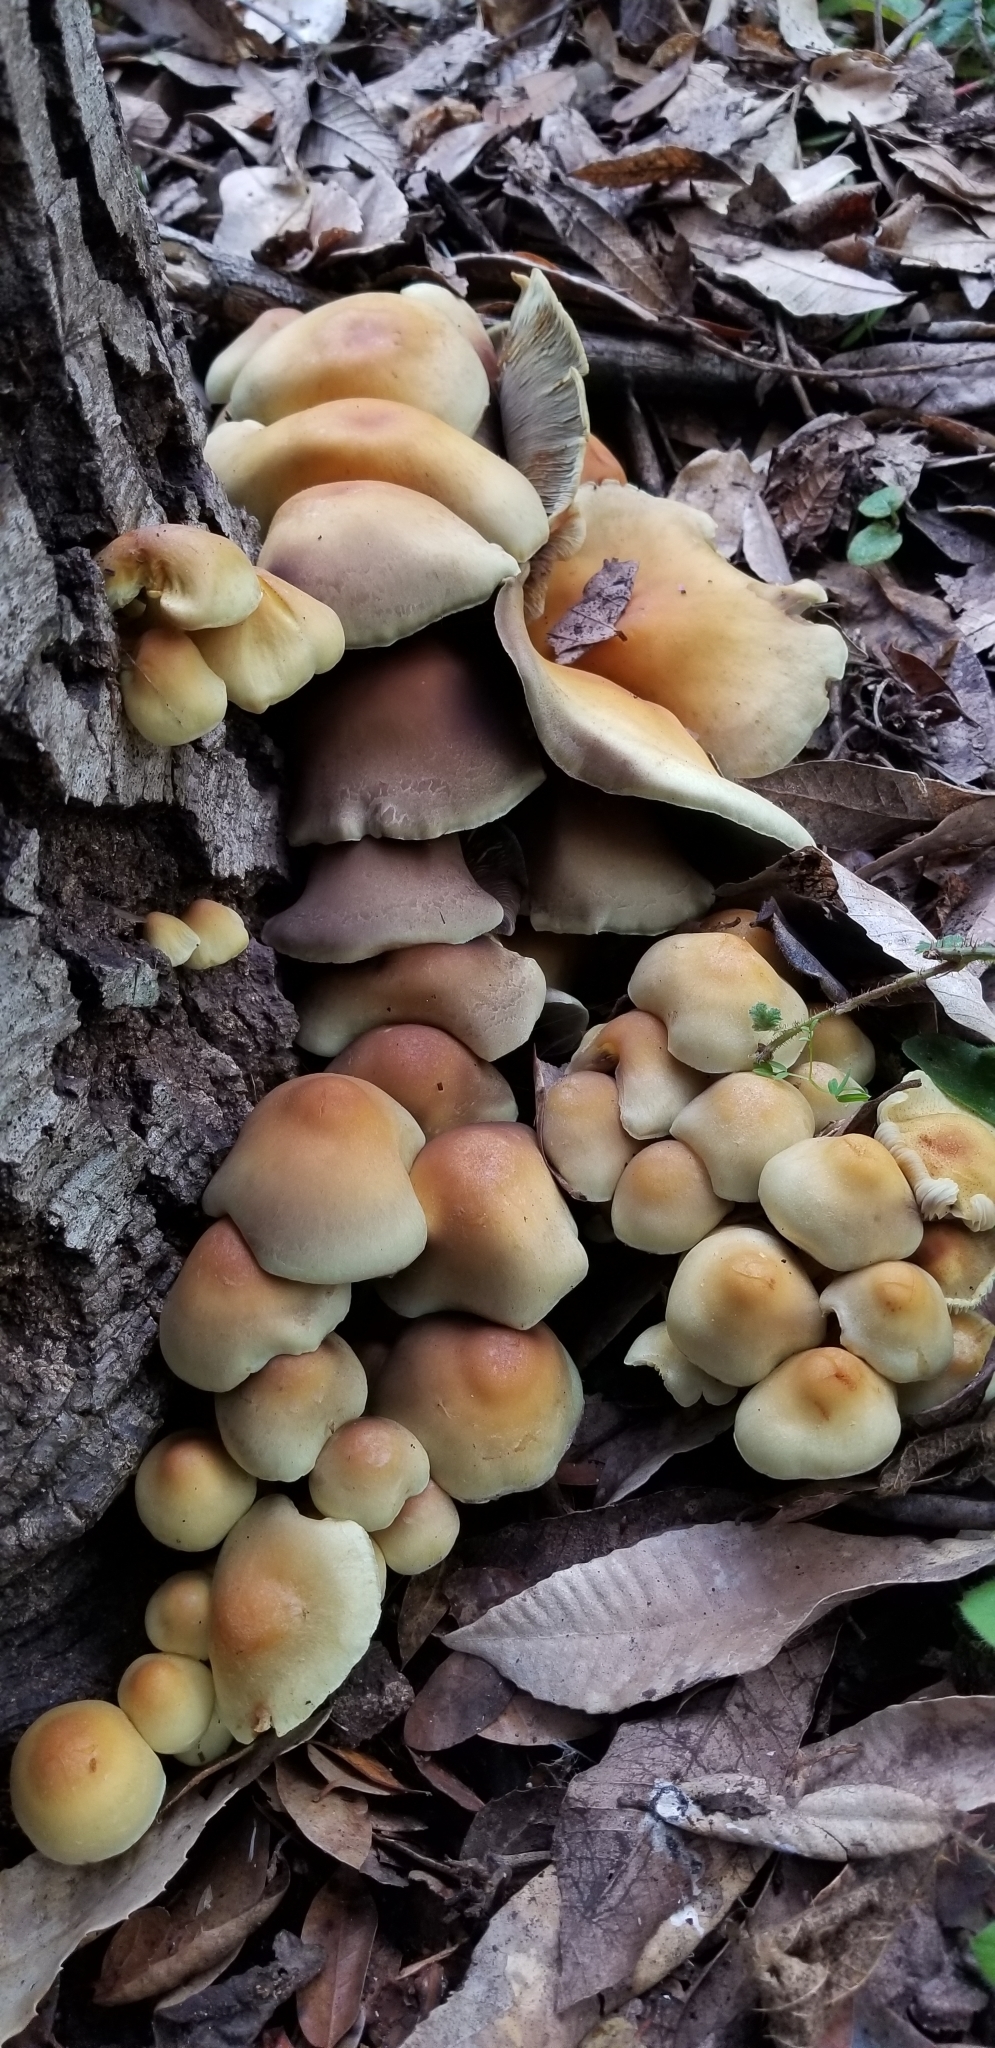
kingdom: Fungi
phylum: Basidiomycota
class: Agaricomycetes
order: Agaricales
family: Strophariaceae
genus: Hypholoma
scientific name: Hypholoma fasciculare
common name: Sulphur tuft
